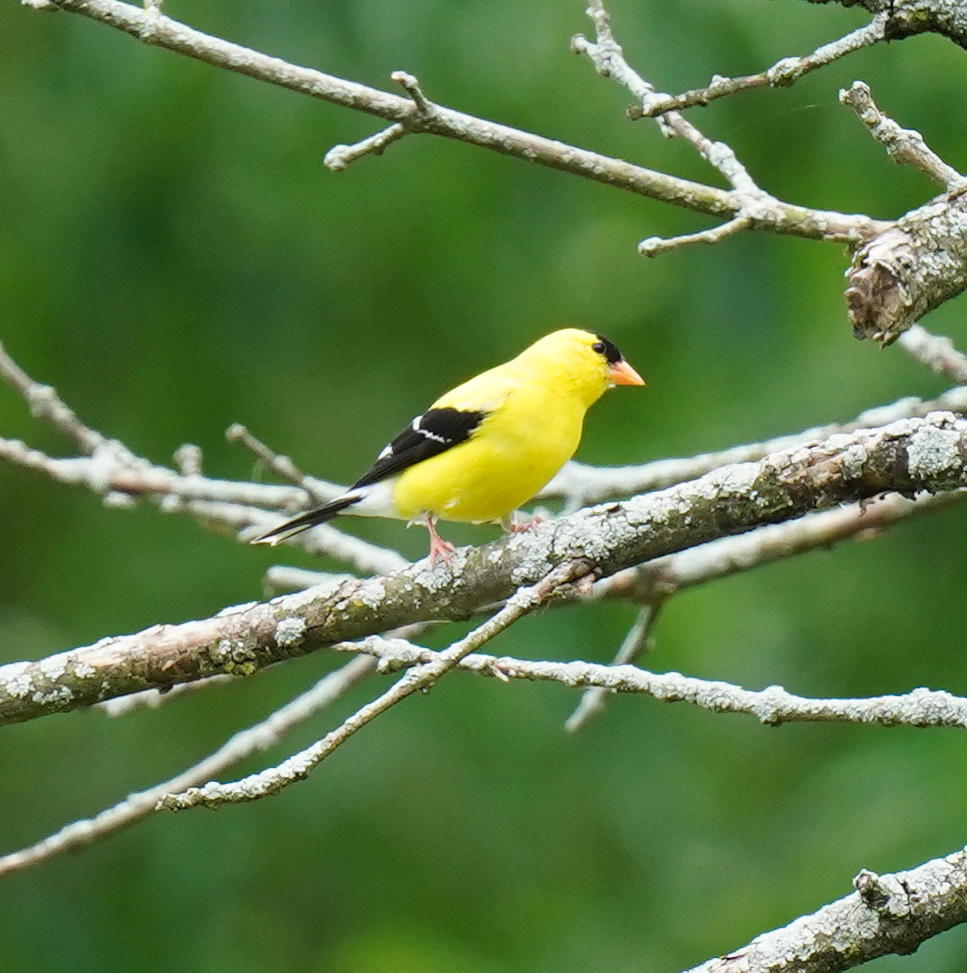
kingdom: Animalia
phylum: Chordata
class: Aves
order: Passeriformes
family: Fringillidae
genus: Spinus
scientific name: Spinus tristis
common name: American goldfinch
